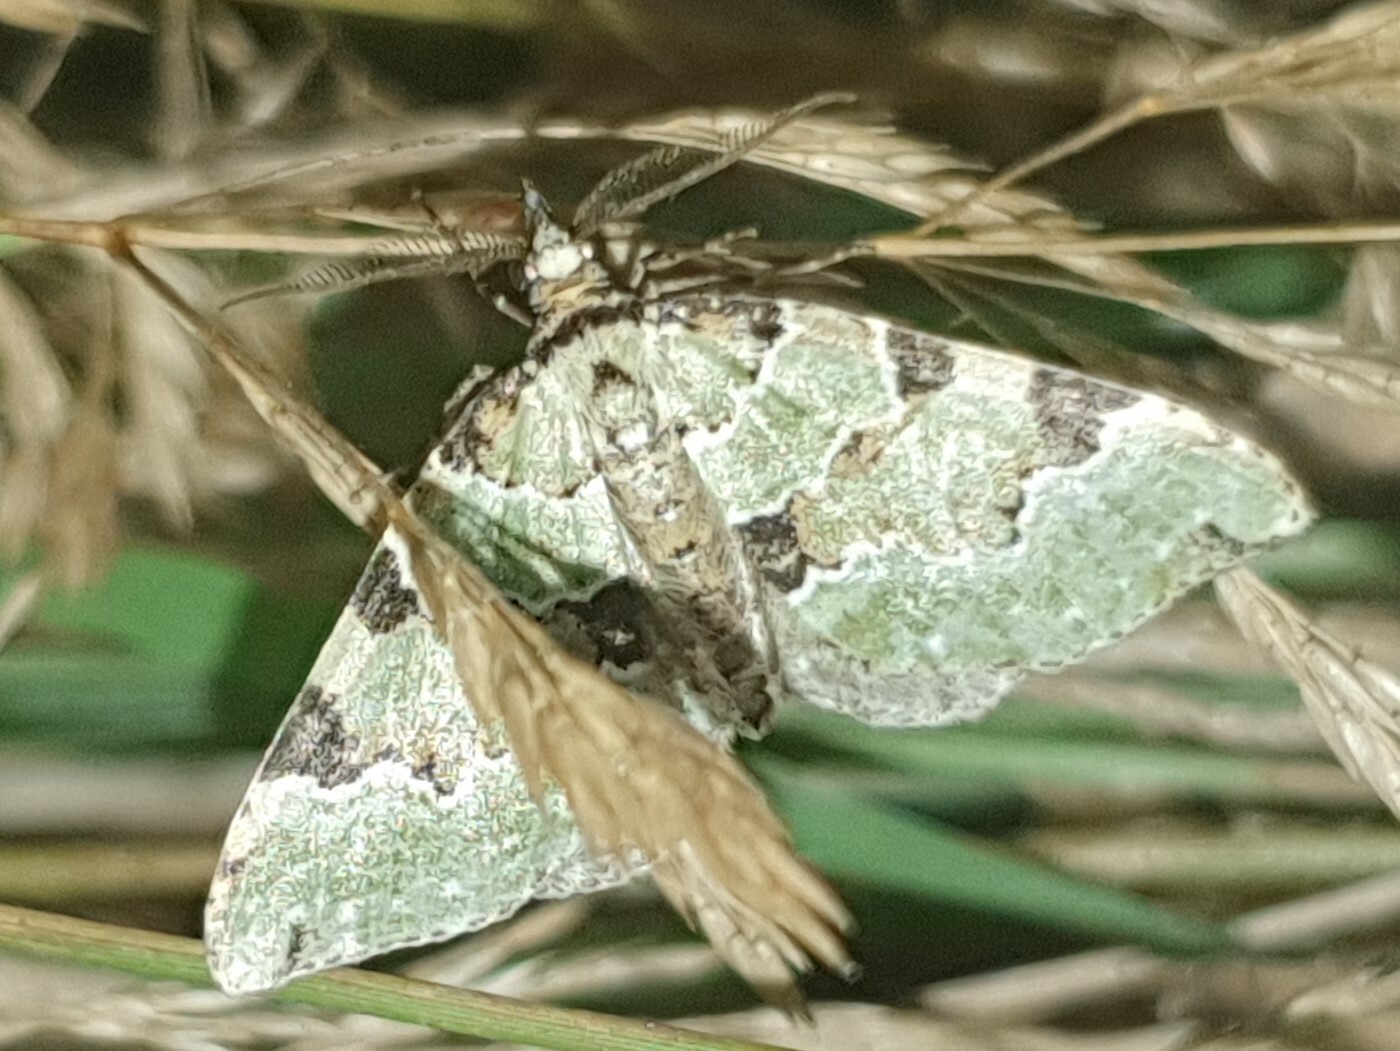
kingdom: Animalia
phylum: Arthropoda
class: Insecta
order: Lepidoptera
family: Geometridae
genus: Colostygia
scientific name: Colostygia pectinataria
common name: Green carpet
